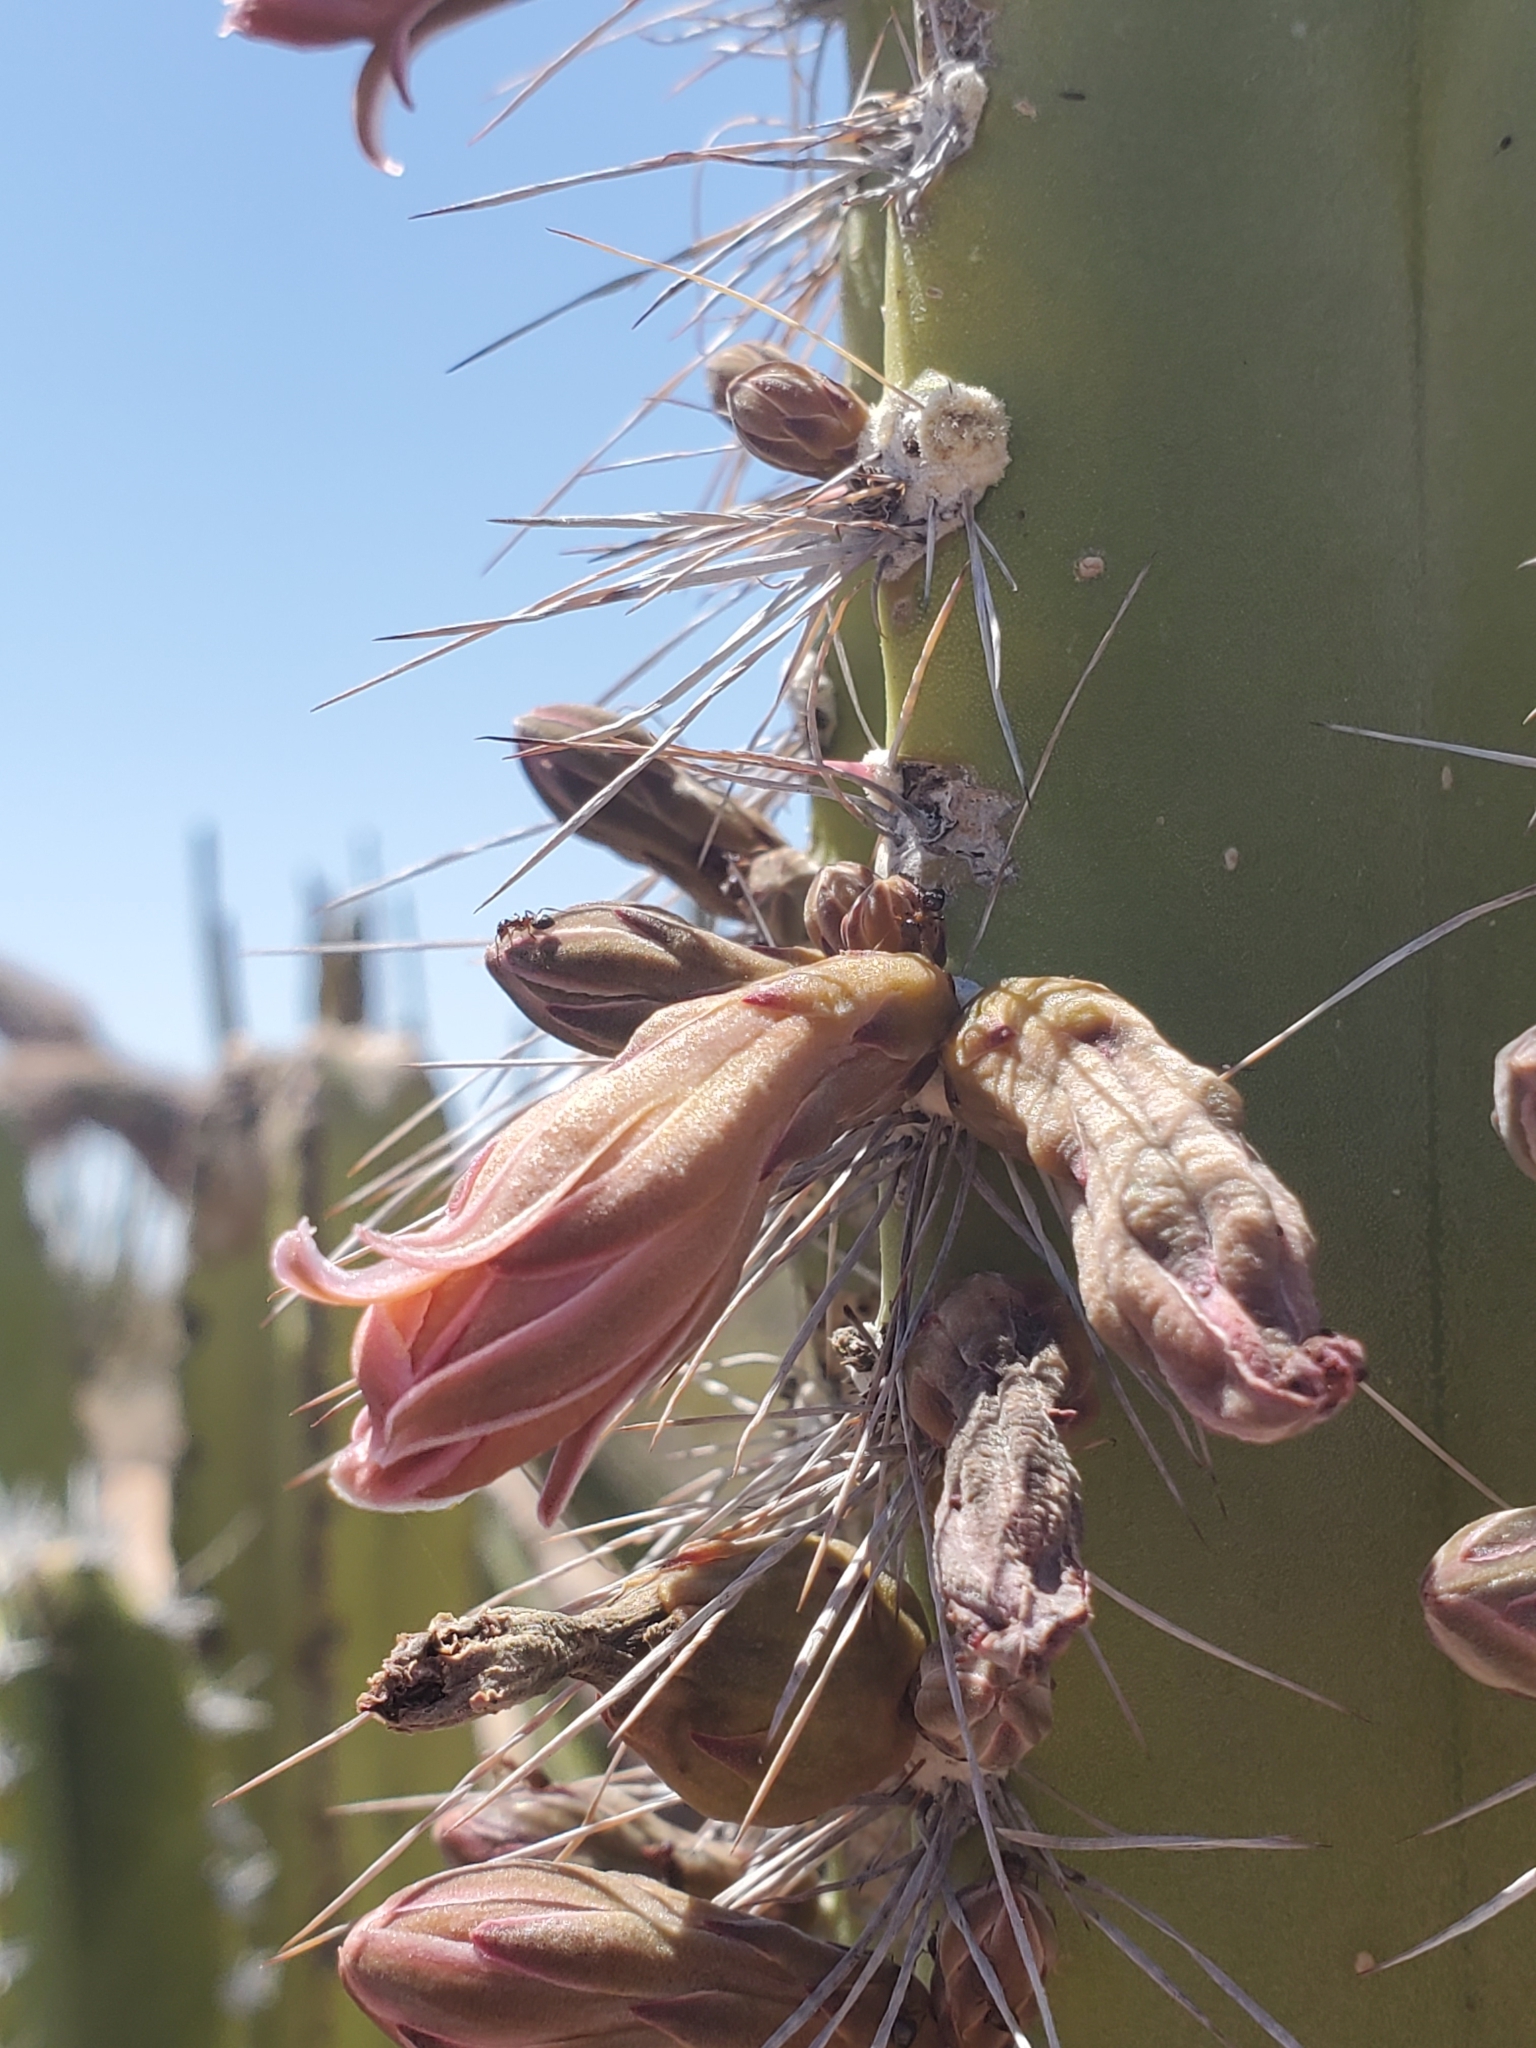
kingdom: Plantae
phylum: Tracheophyta
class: Magnoliopsida
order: Caryophyllales
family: Cactaceae
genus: Pachycereus
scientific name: Pachycereus schottii
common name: Senita cactus
